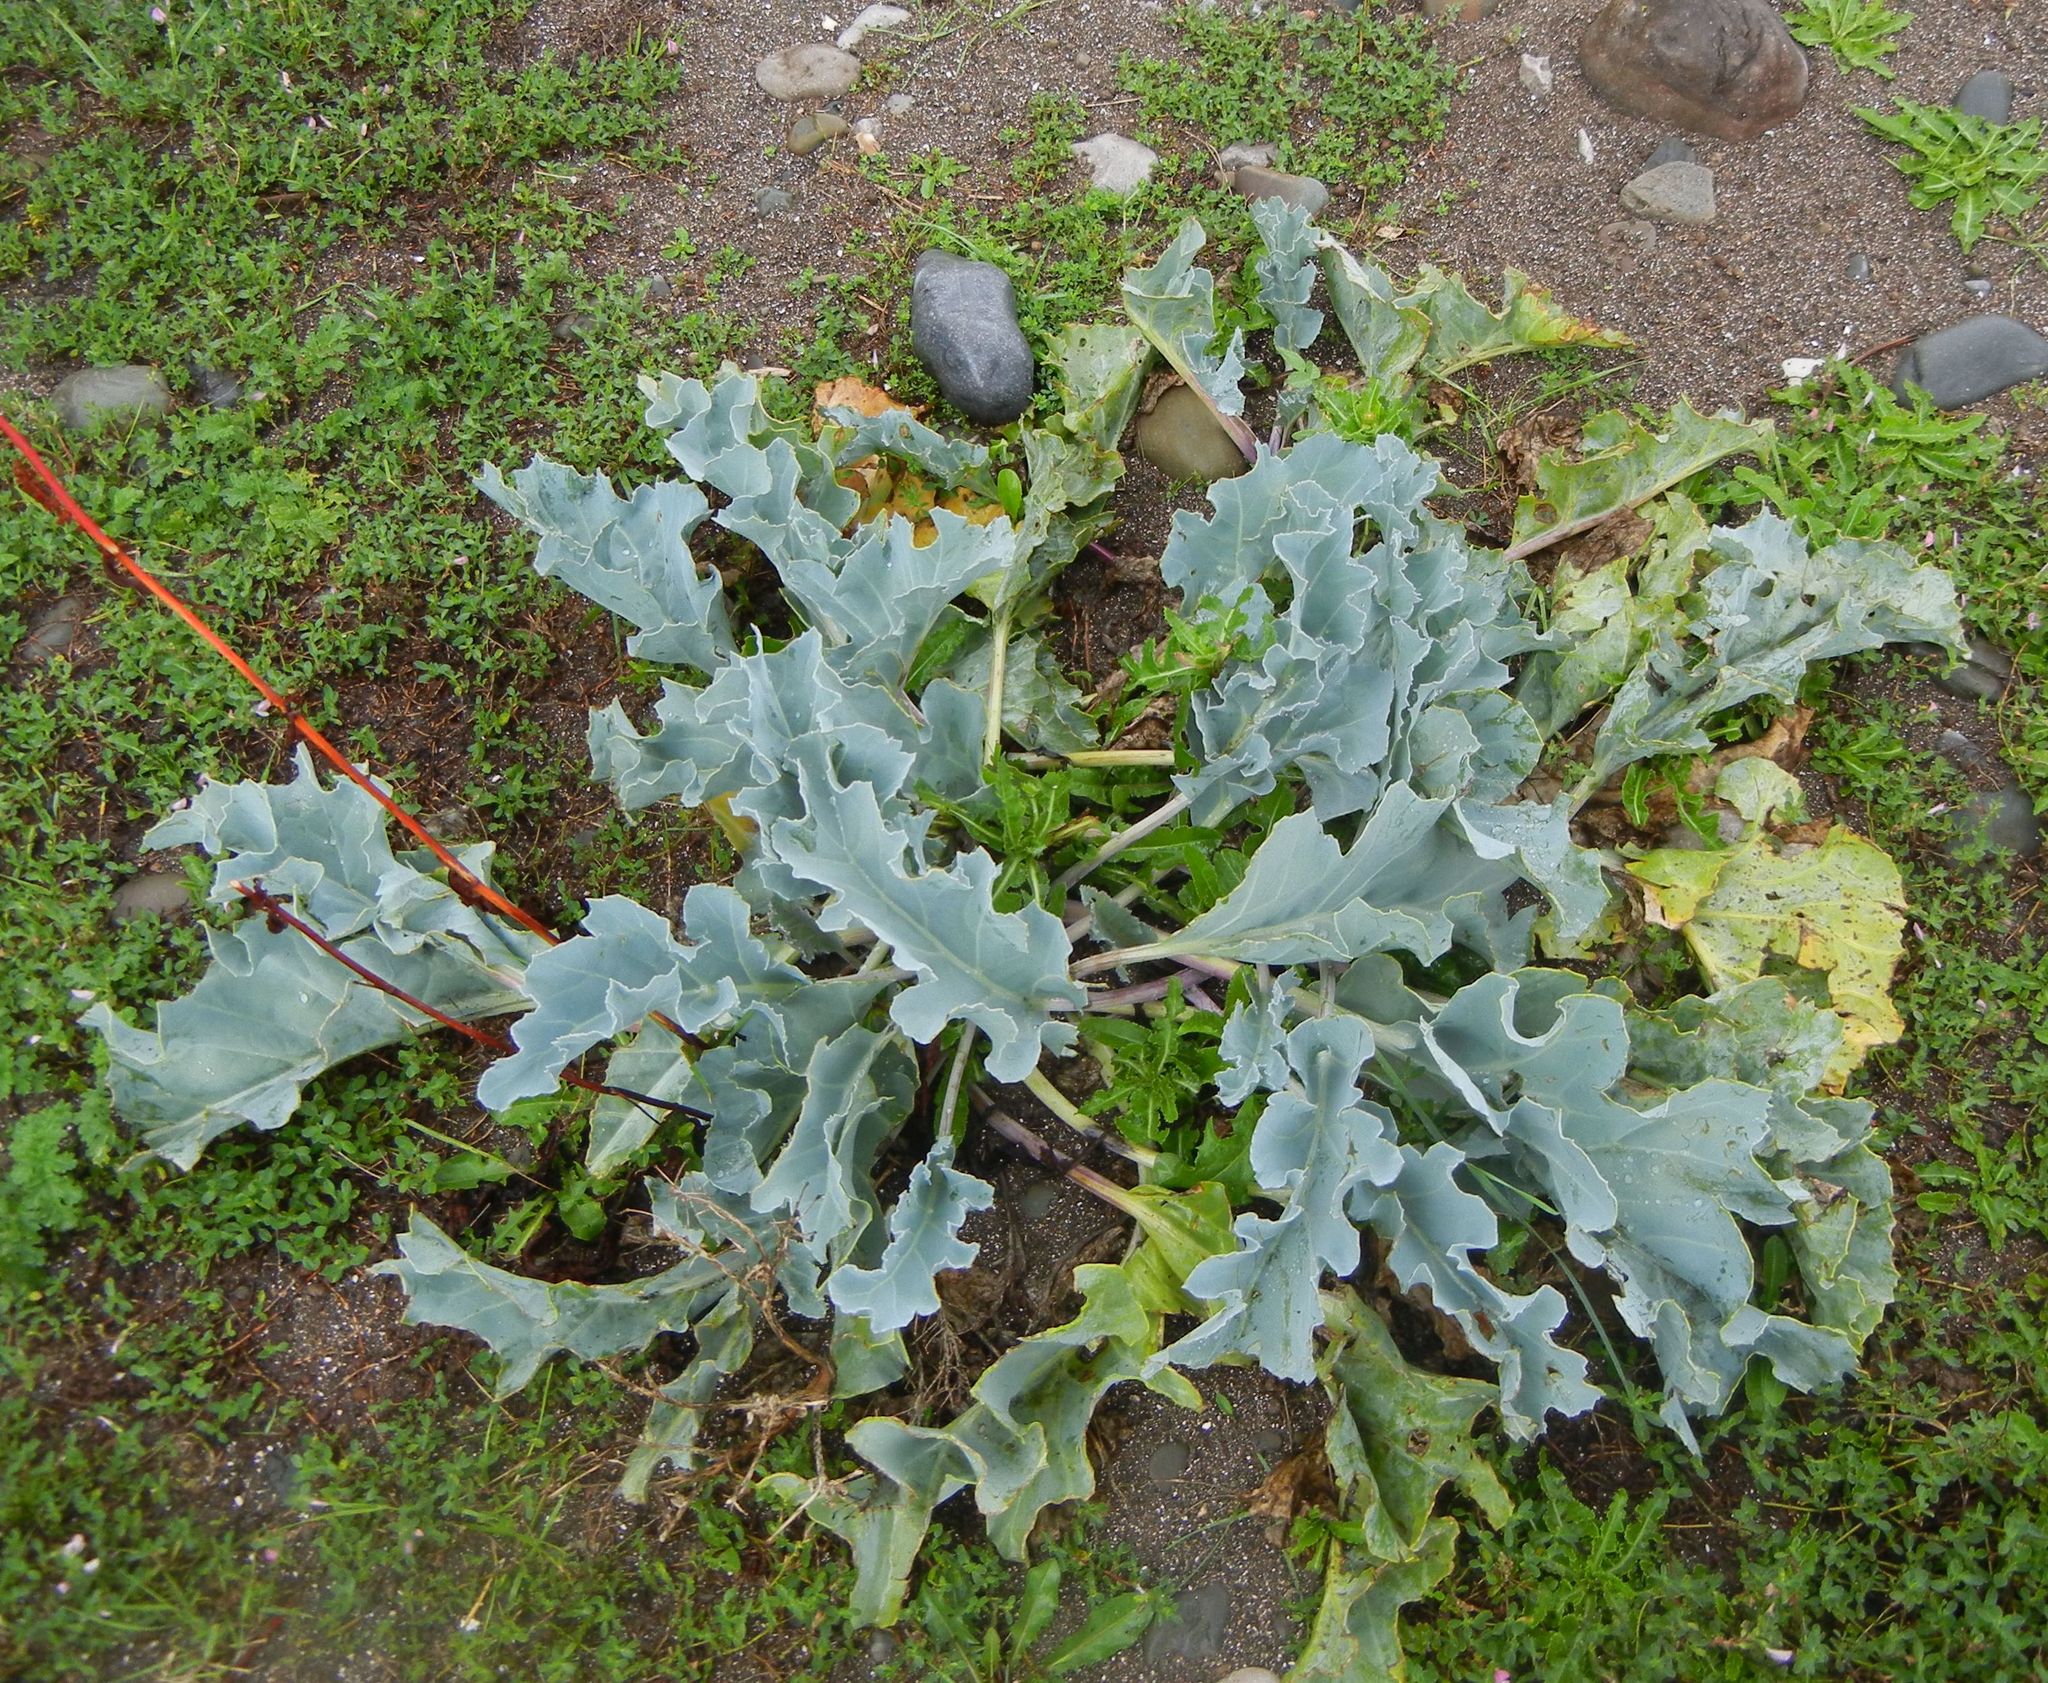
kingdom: Plantae
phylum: Tracheophyta
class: Magnoliopsida
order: Brassicales
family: Brassicaceae
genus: Crambe
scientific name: Crambe maritima
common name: Sea-kale
